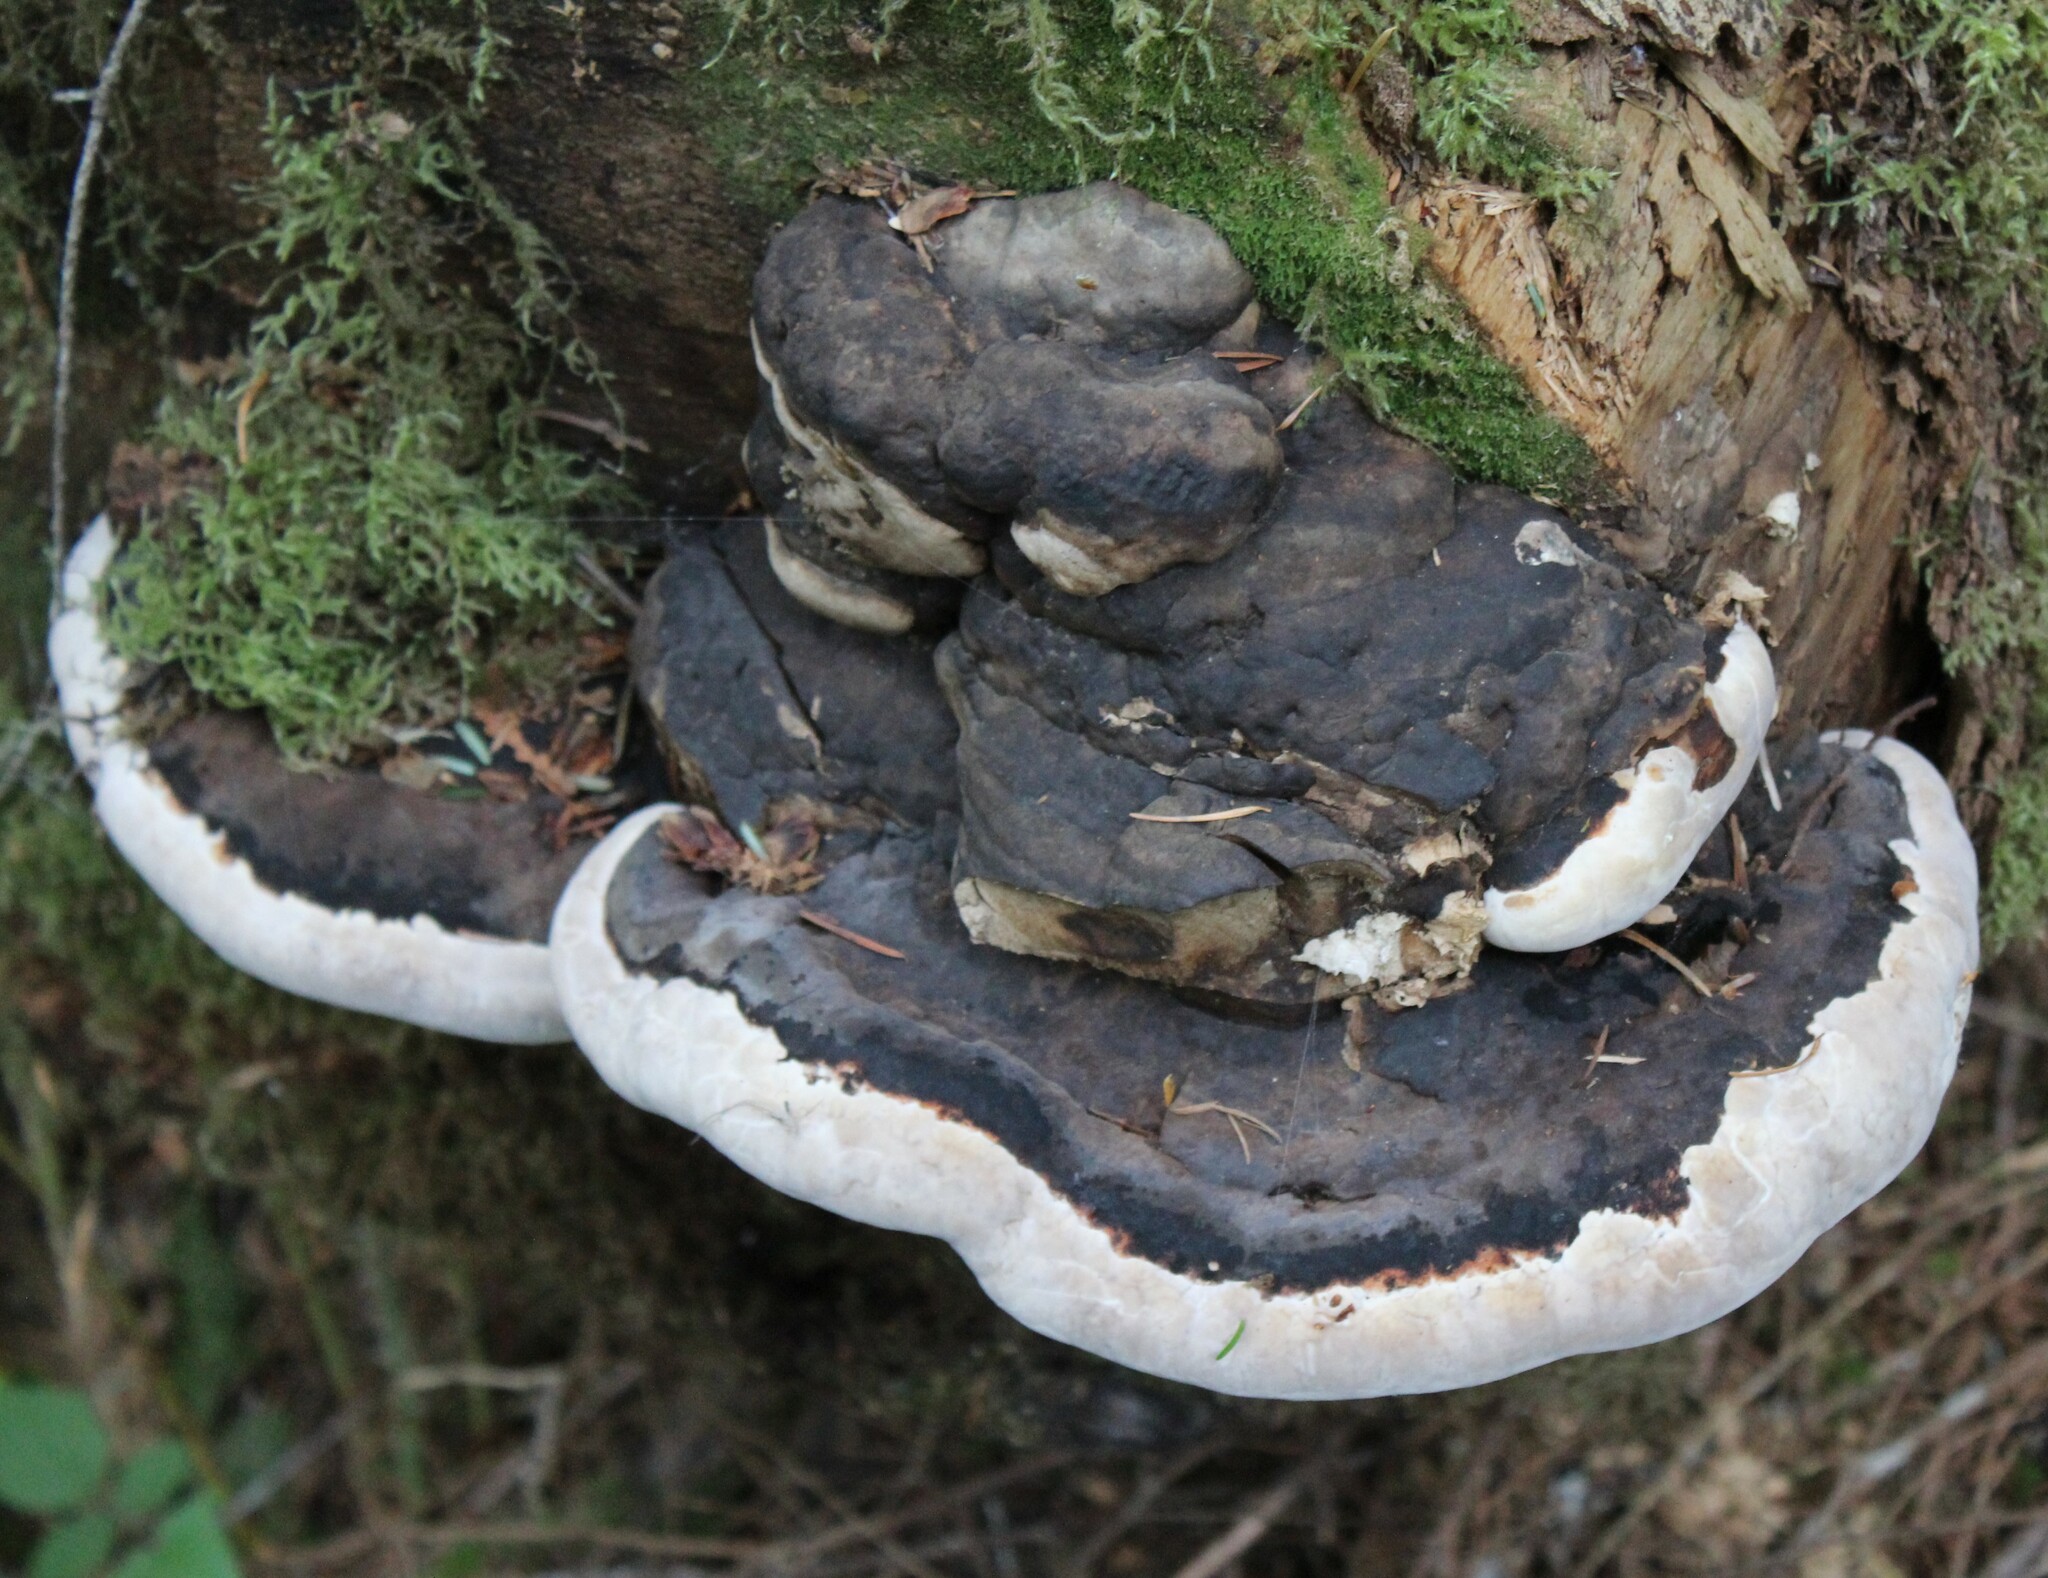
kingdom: Fungi
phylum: Basidiomycota
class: Agaricomycetes
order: Polyporales
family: Fomitopsidaceae
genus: Fomitopsis
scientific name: Fomitopsis ochracea
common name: American brown fomitopsis
